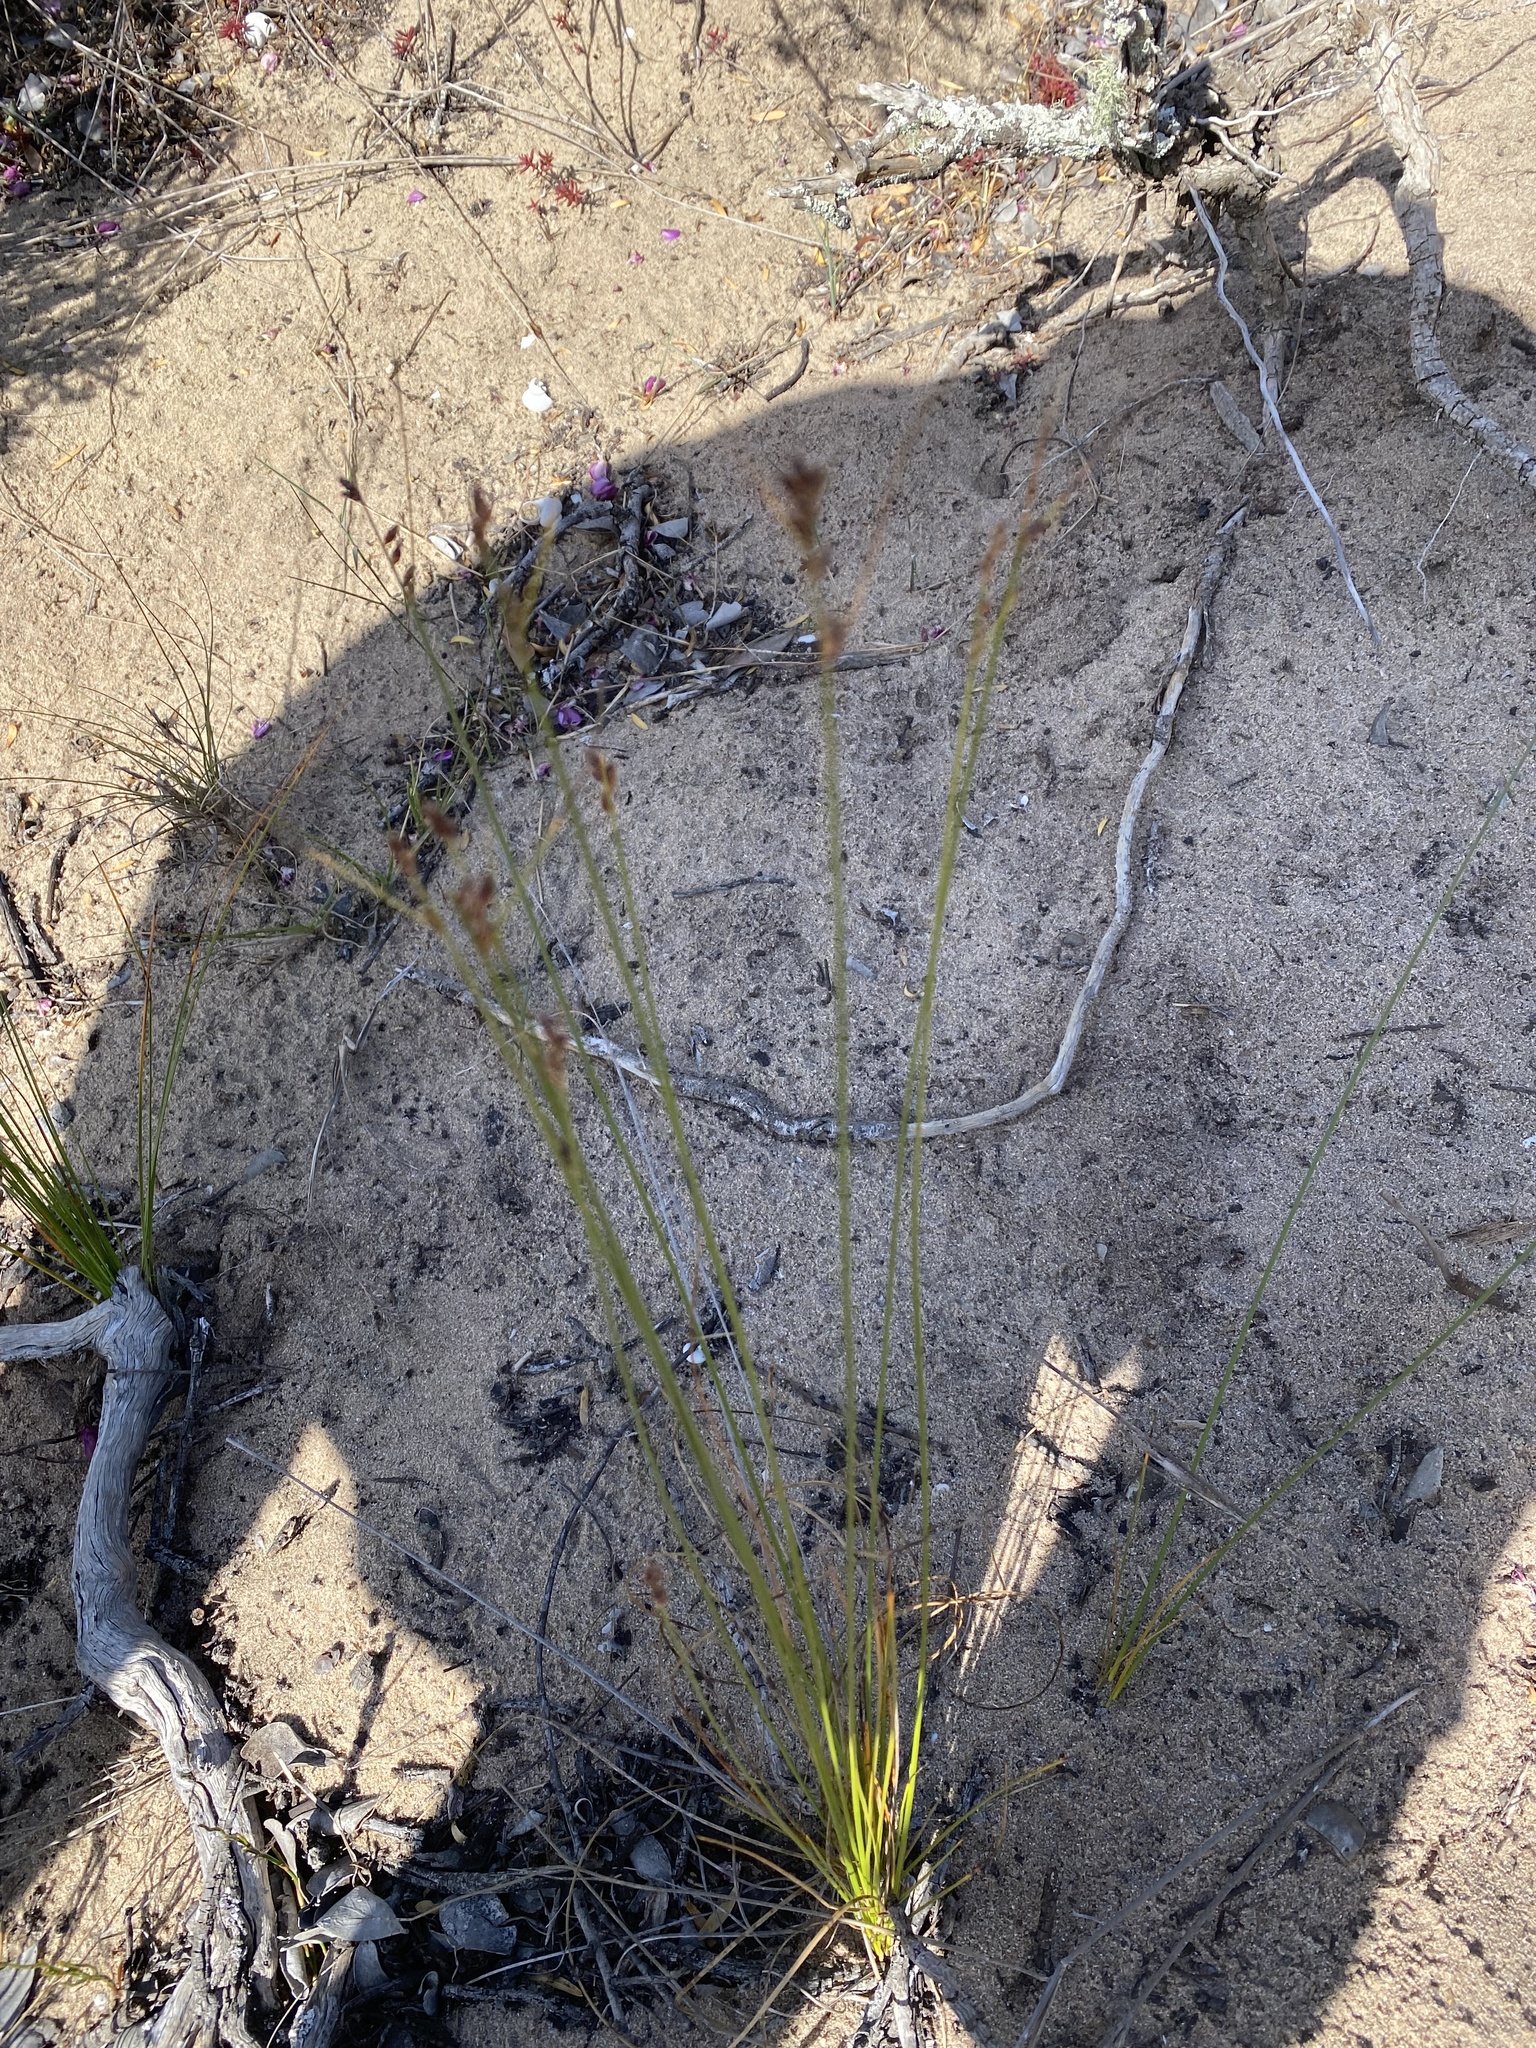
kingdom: Plantae
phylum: Tracheophyta
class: Liliopsida
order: Poales
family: Cyperaceae
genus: Ficinia
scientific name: Ficinia secunda
